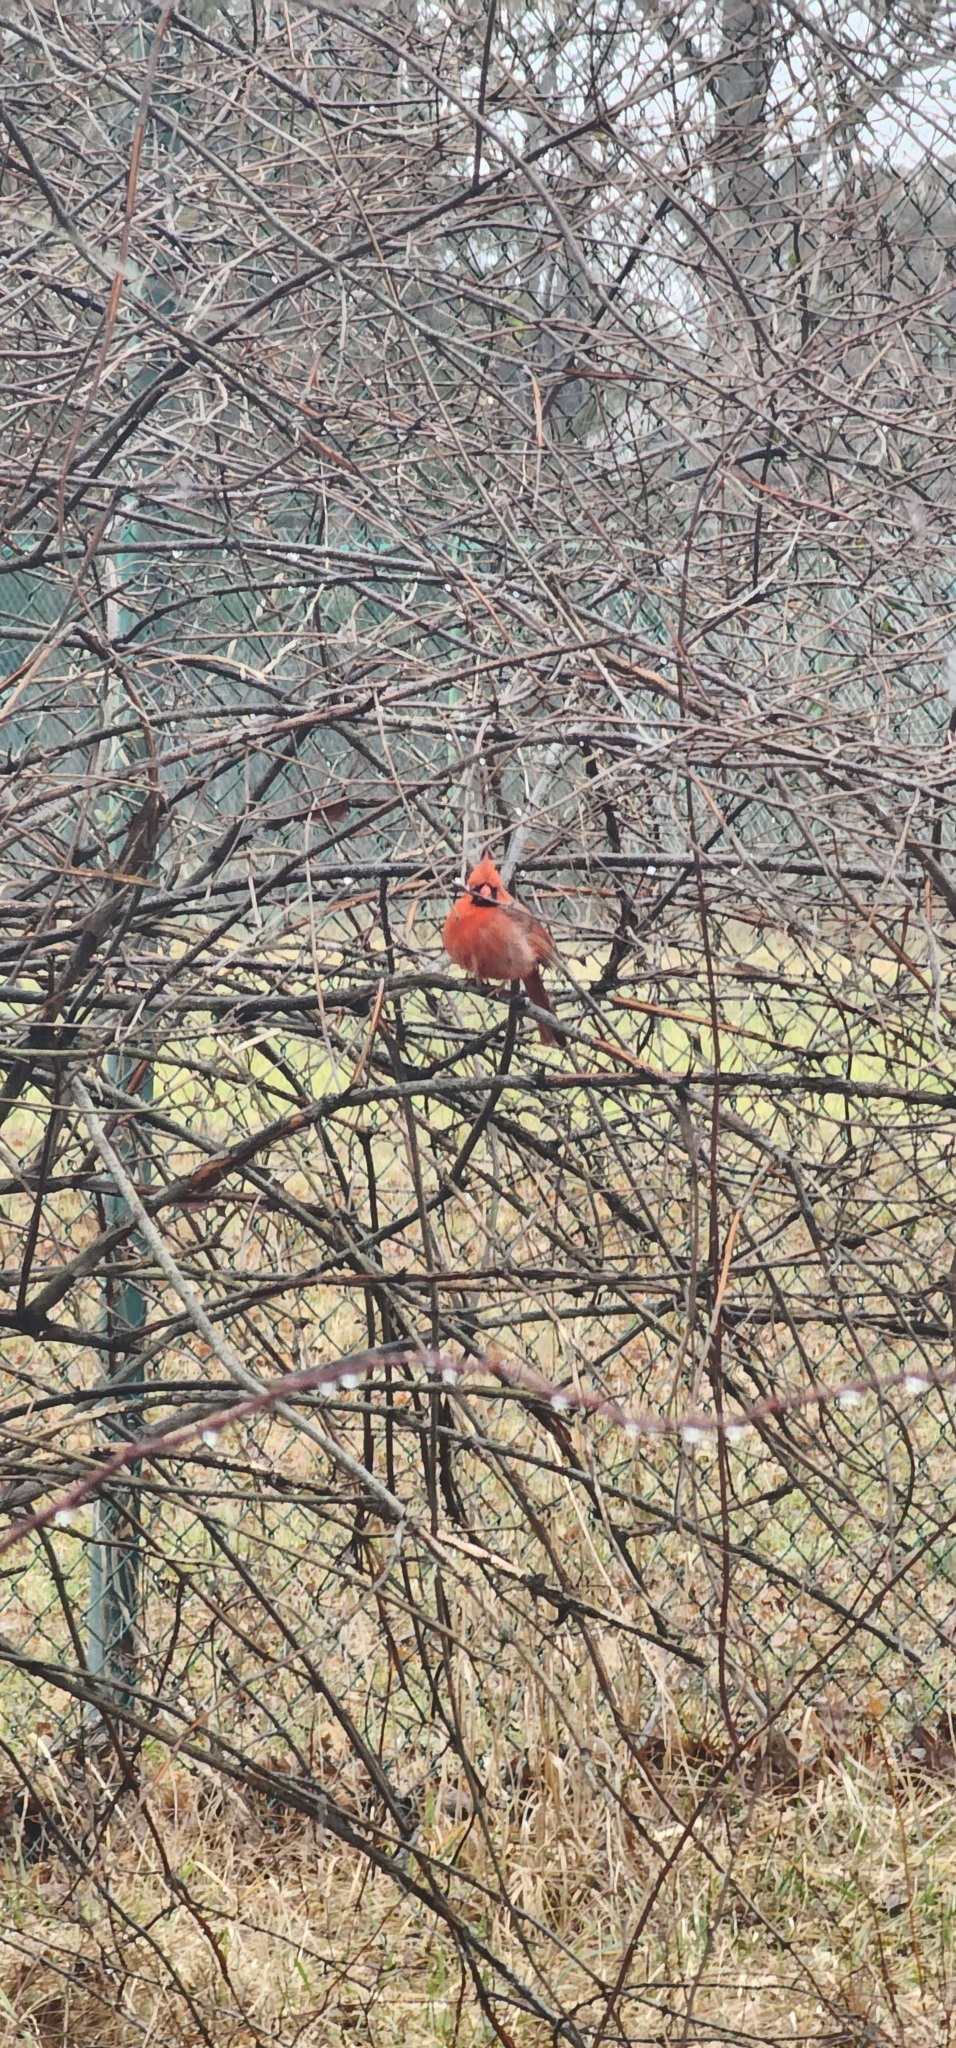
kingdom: Animalia
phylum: Chordata
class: Aves
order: Passeriformes
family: Cardinalidae
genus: Cardinalis
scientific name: Cardinalis cardinalis
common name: Northern cardinal
